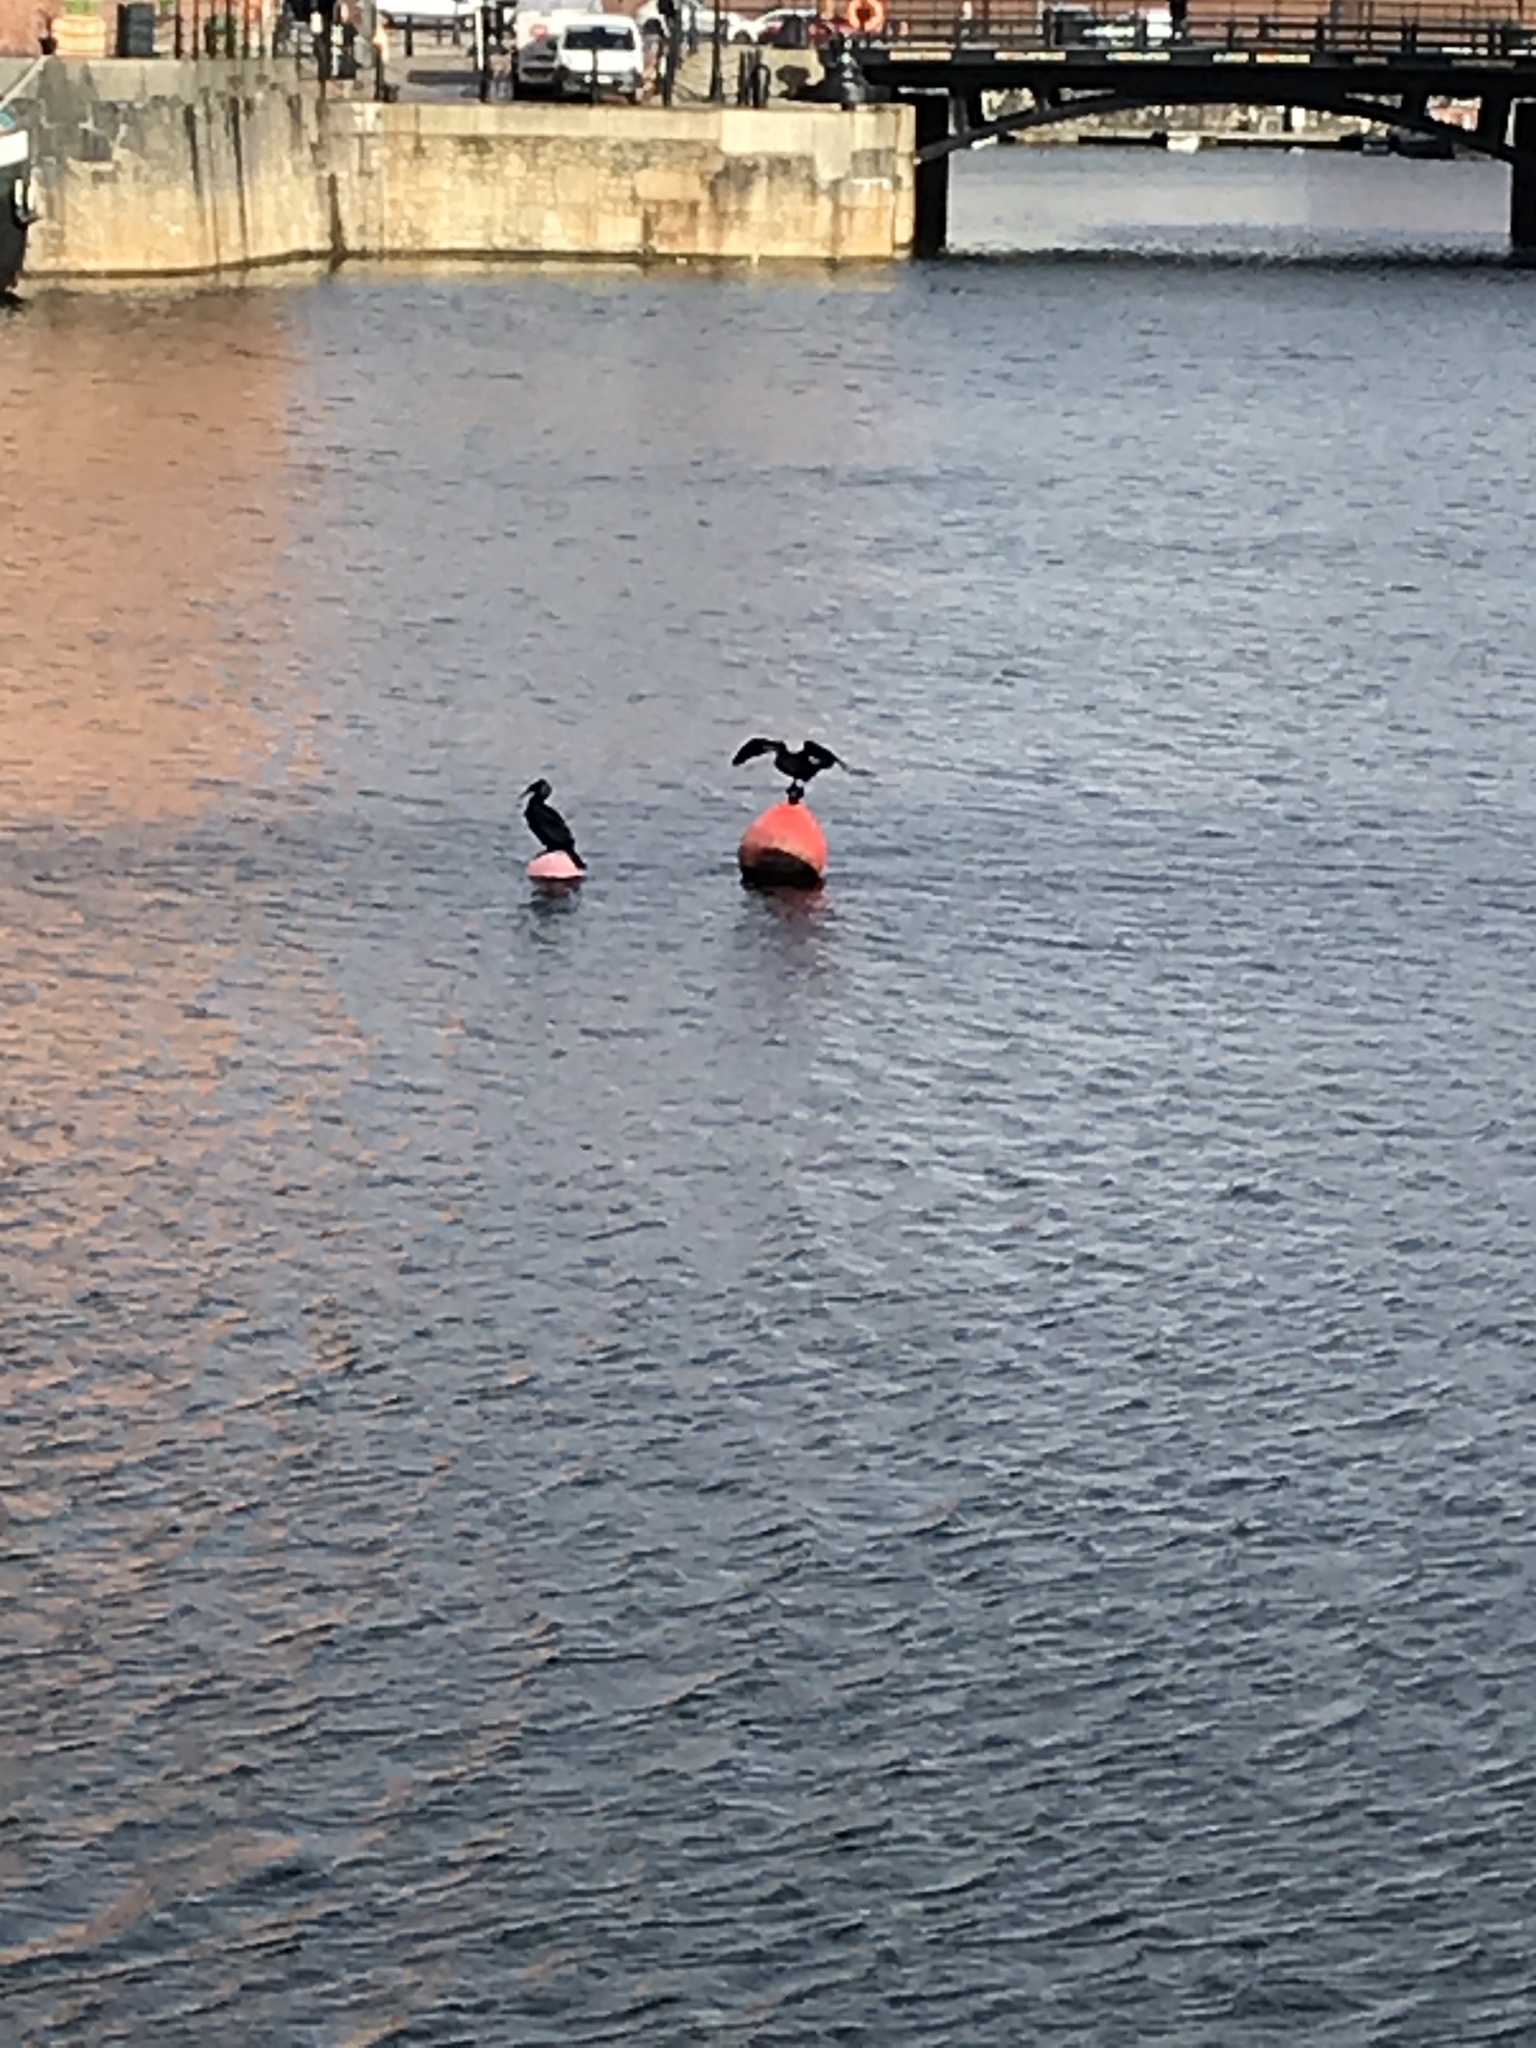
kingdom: Animalia
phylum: Chordata
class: Aves
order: Suliformes
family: Phalacrocoracidae
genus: Phalacrocorax
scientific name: Phalacrocorax carbo
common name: Great cormorant
